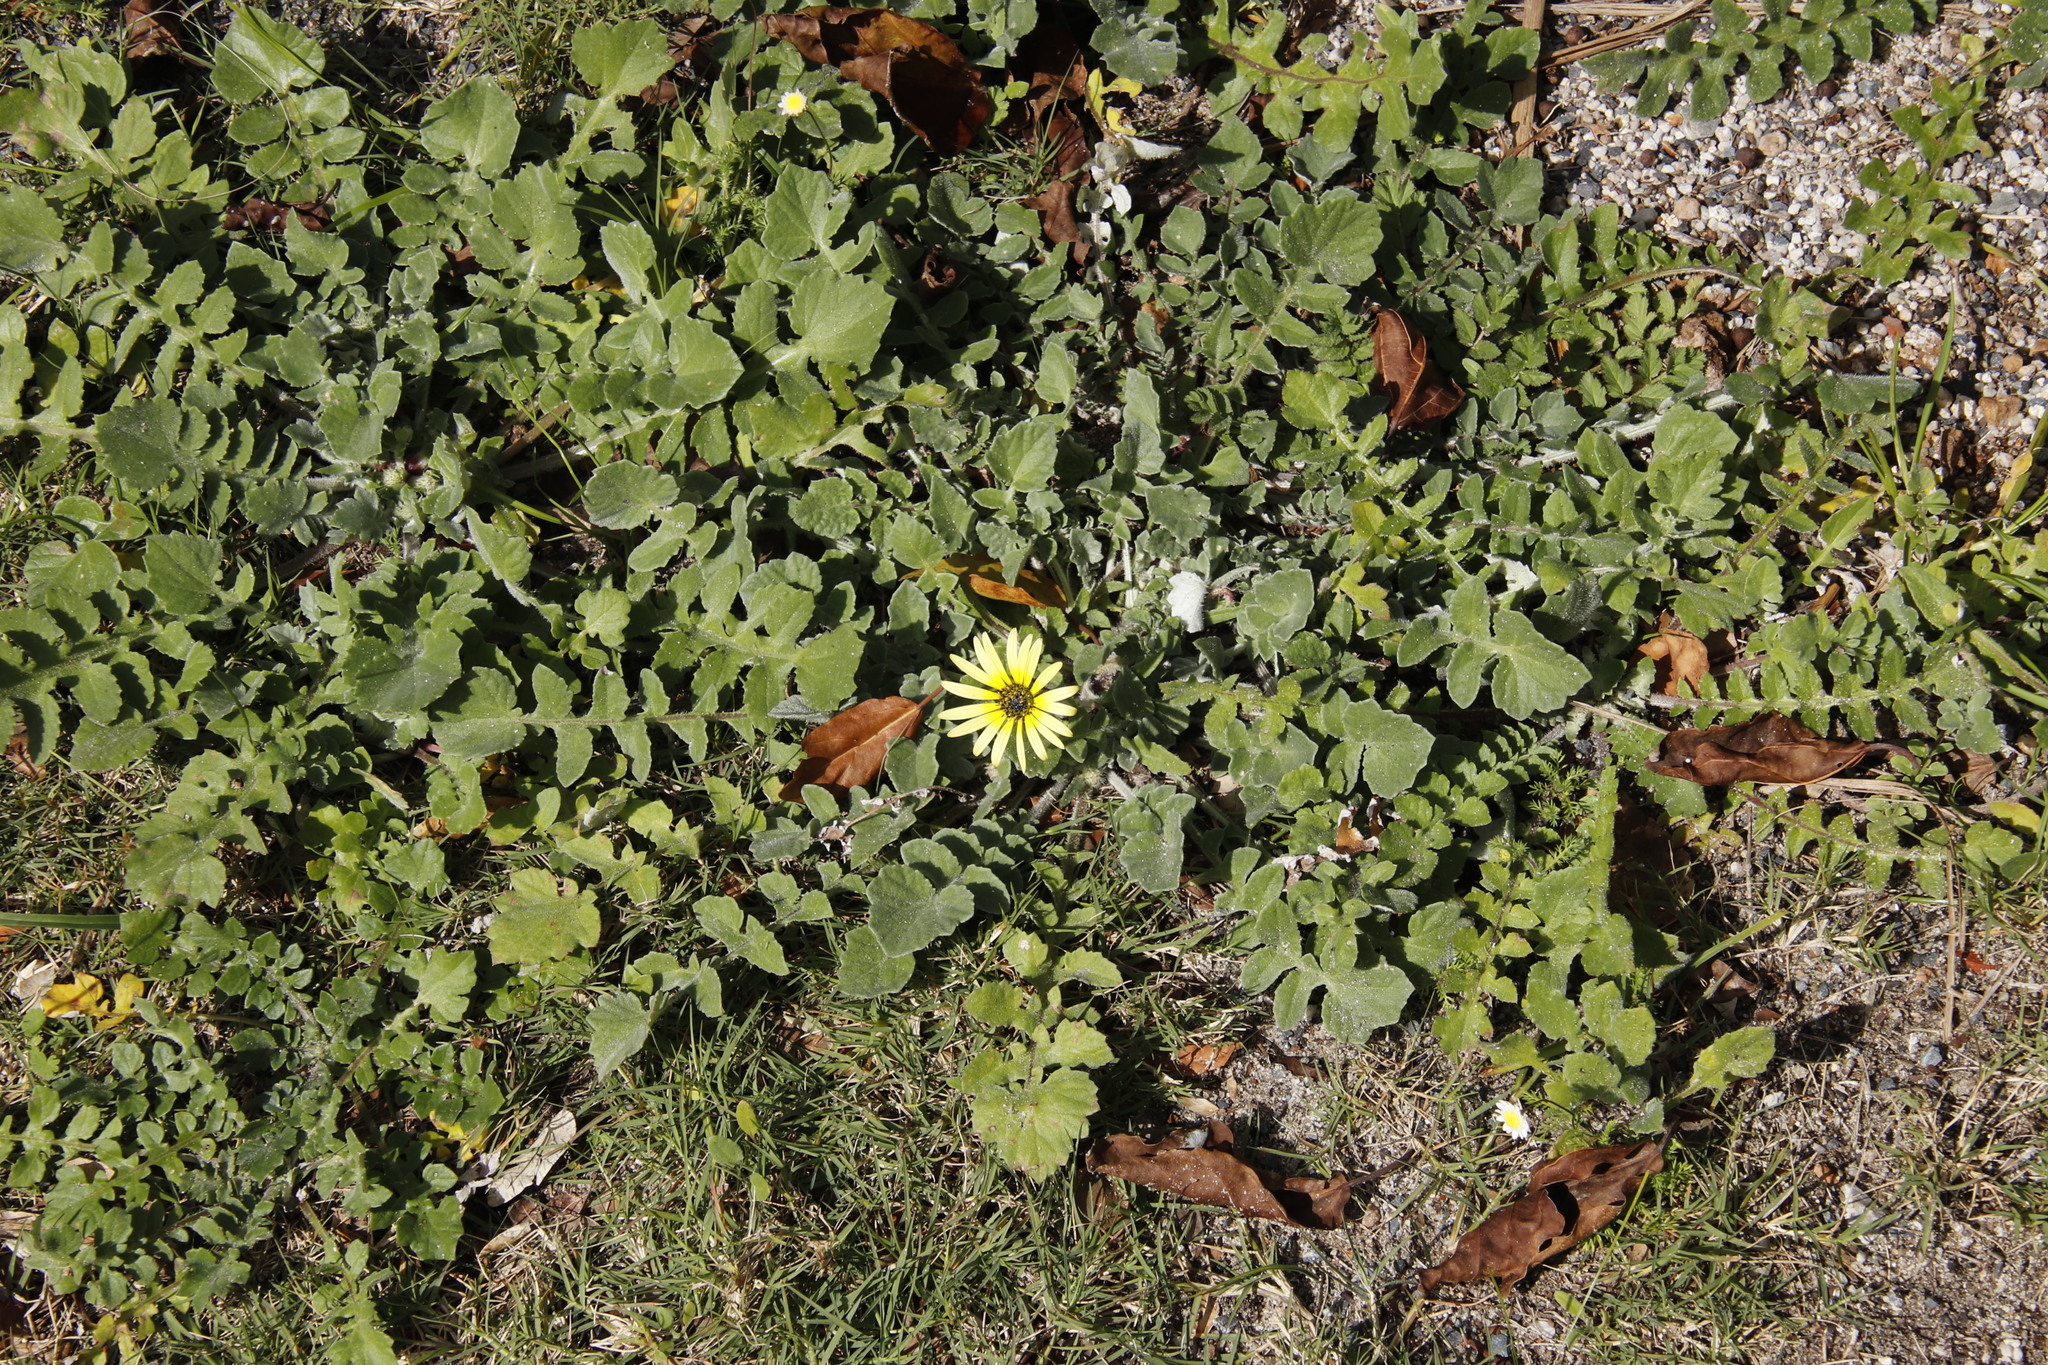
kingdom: Plantae
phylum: Tracheophyta
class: Magnoliopsida
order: Asterales
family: Asteraceae
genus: Arctotheca
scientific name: Arctotheca calendula
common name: Capeweed
